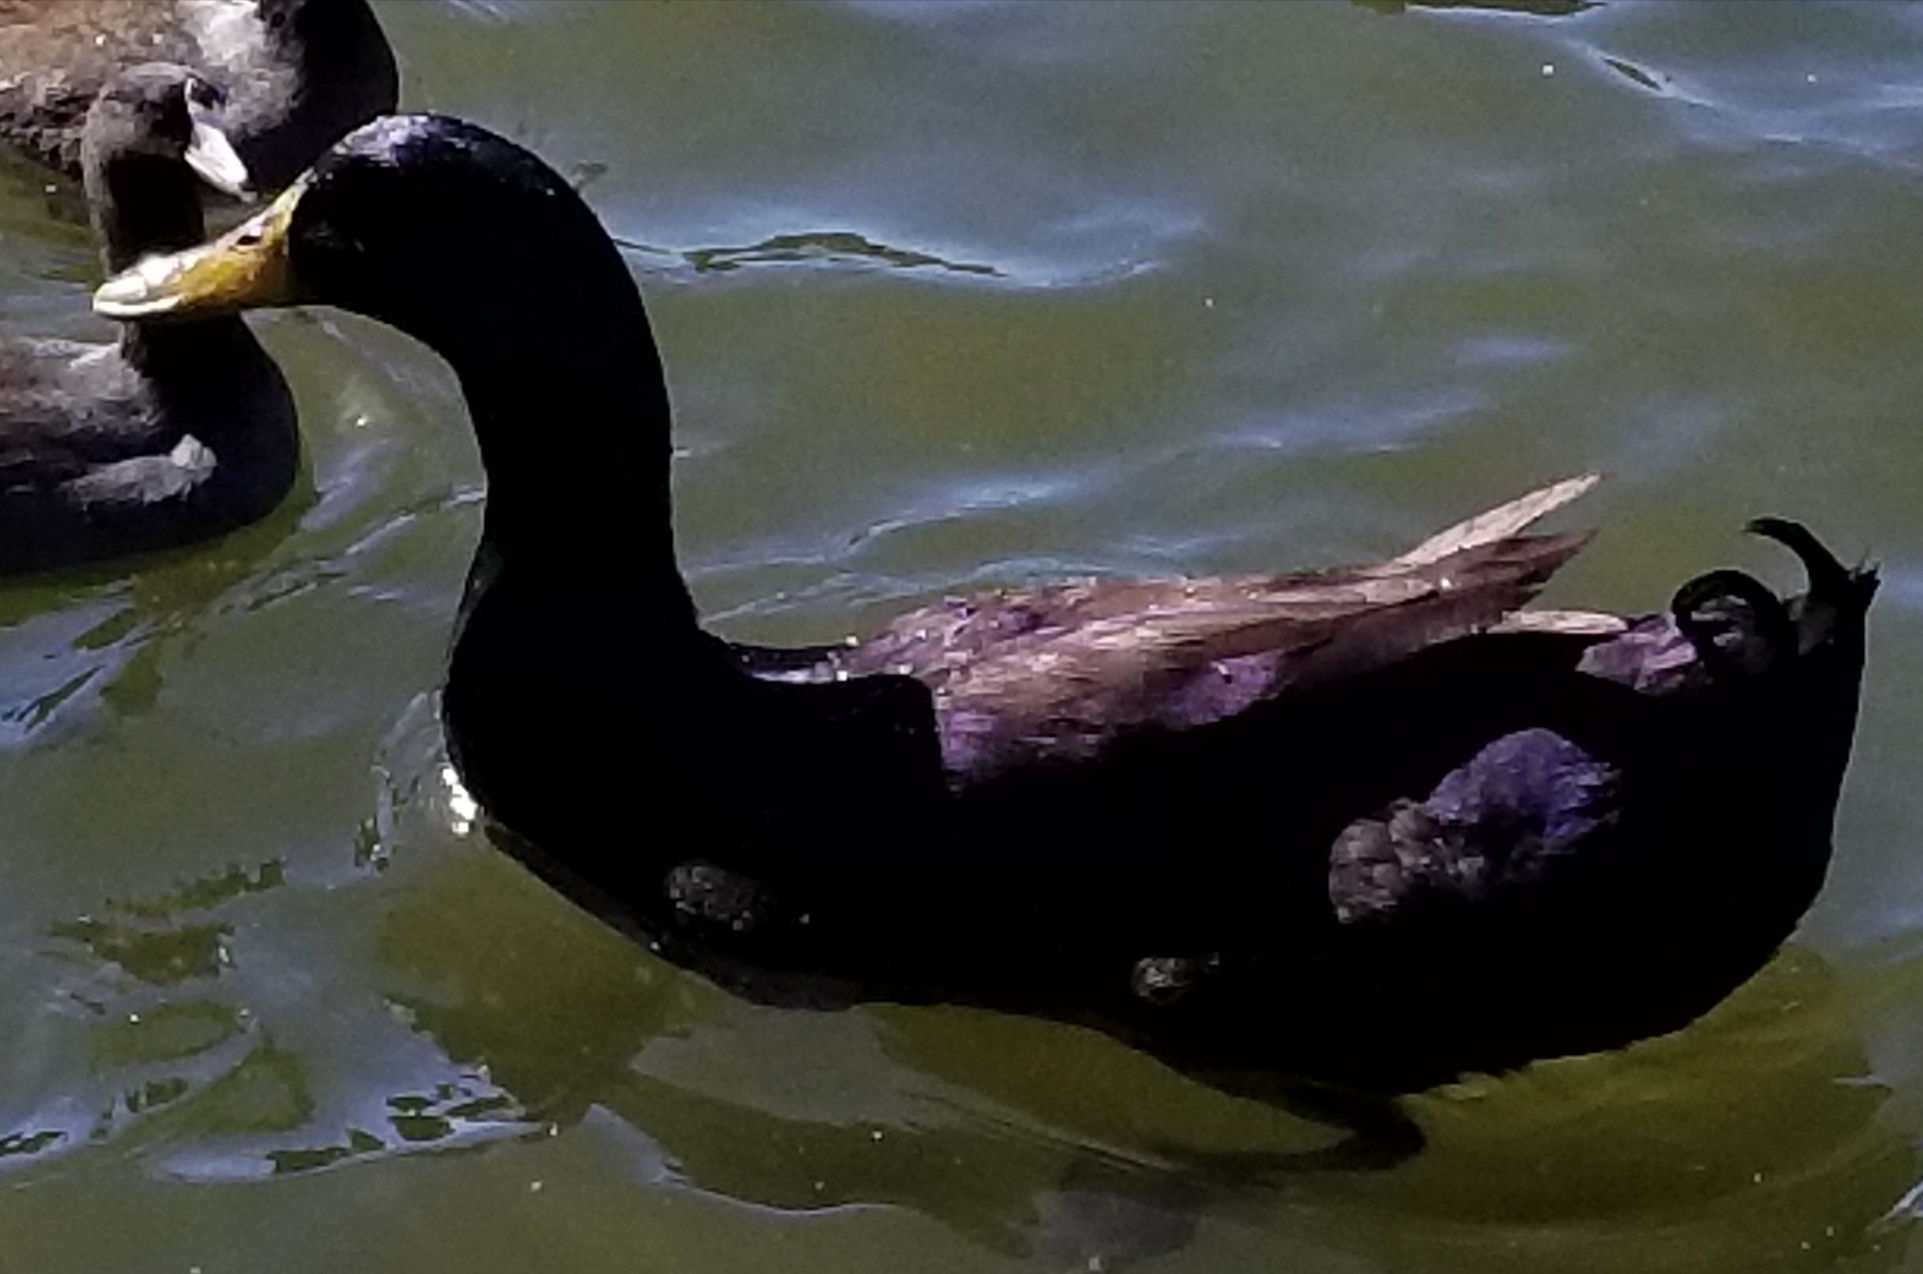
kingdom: Animalia
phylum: Chordata
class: Aves
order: Anseriformes
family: Anatidae
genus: Anas
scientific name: Anas platyrhynchos
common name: Mallard
